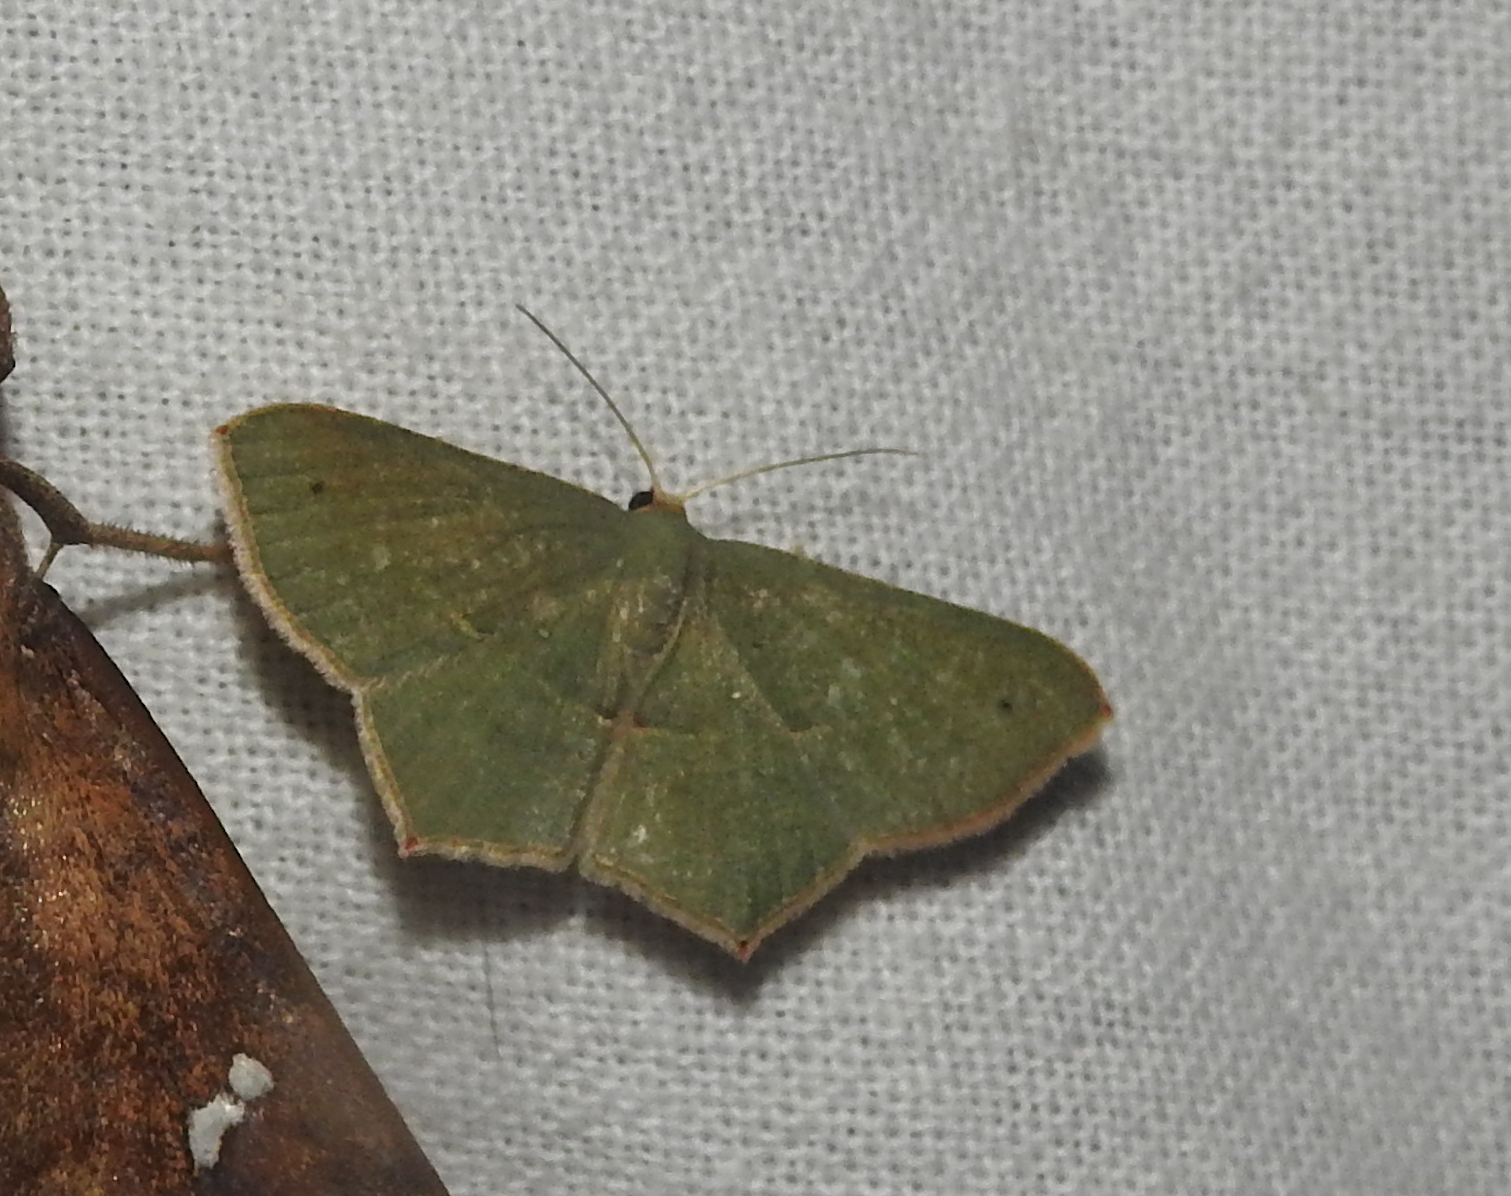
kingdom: Animalia
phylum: Arthropoda
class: Insecta
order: Lepidoptera
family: Geometridae
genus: Traminda
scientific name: Traminda mundissima
